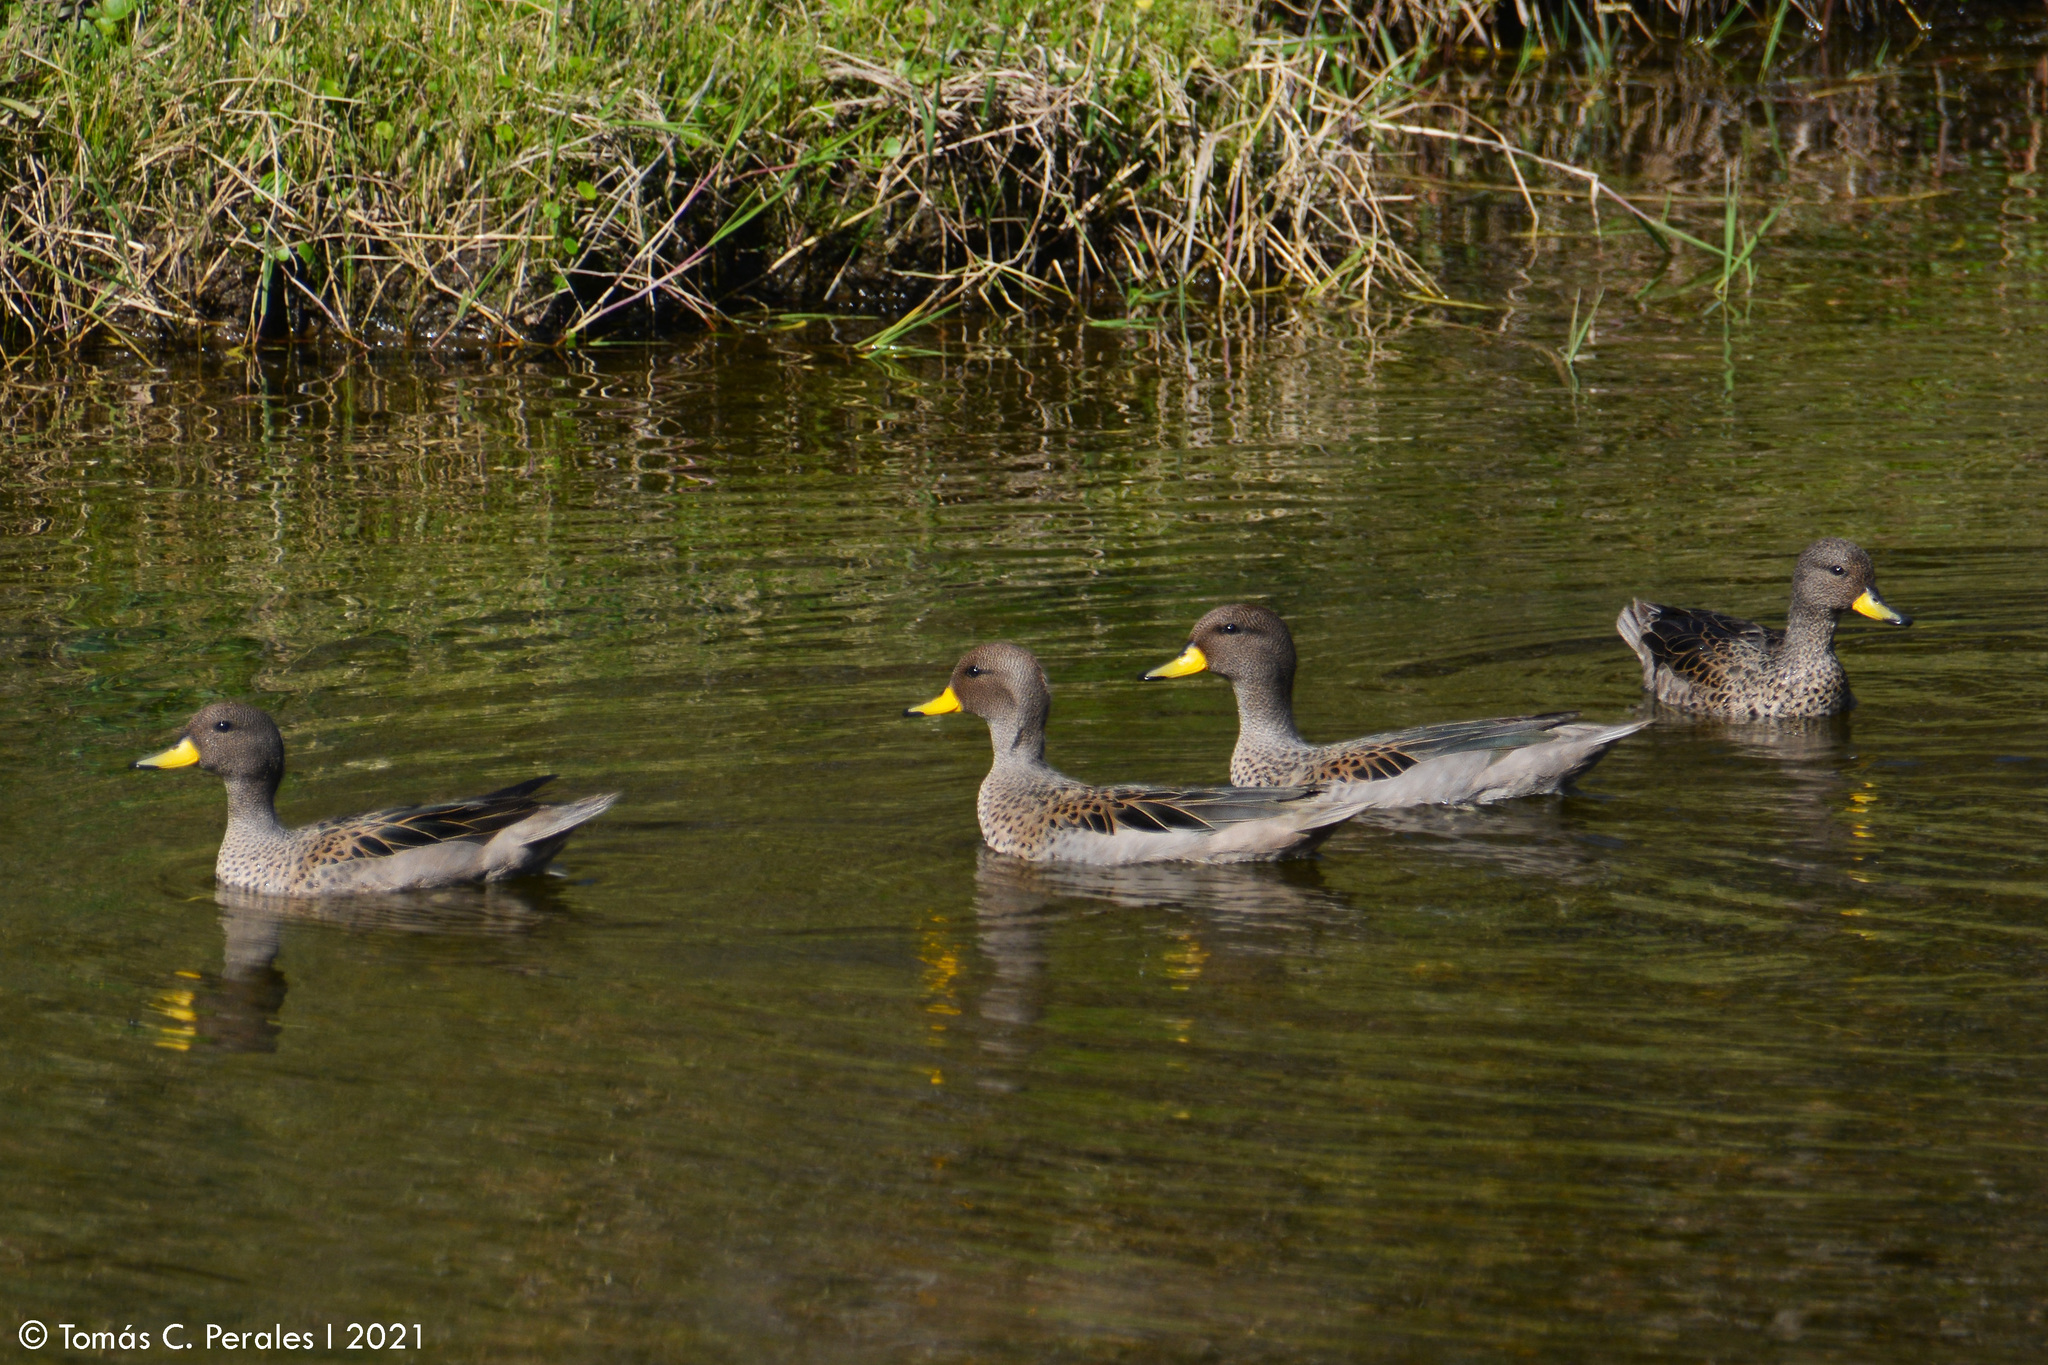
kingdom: Animalia
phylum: Chordata
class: Aves
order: Anseriformes
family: Anatidae
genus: Anas
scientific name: Anas flavirostris
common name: Yellow-billed teal
